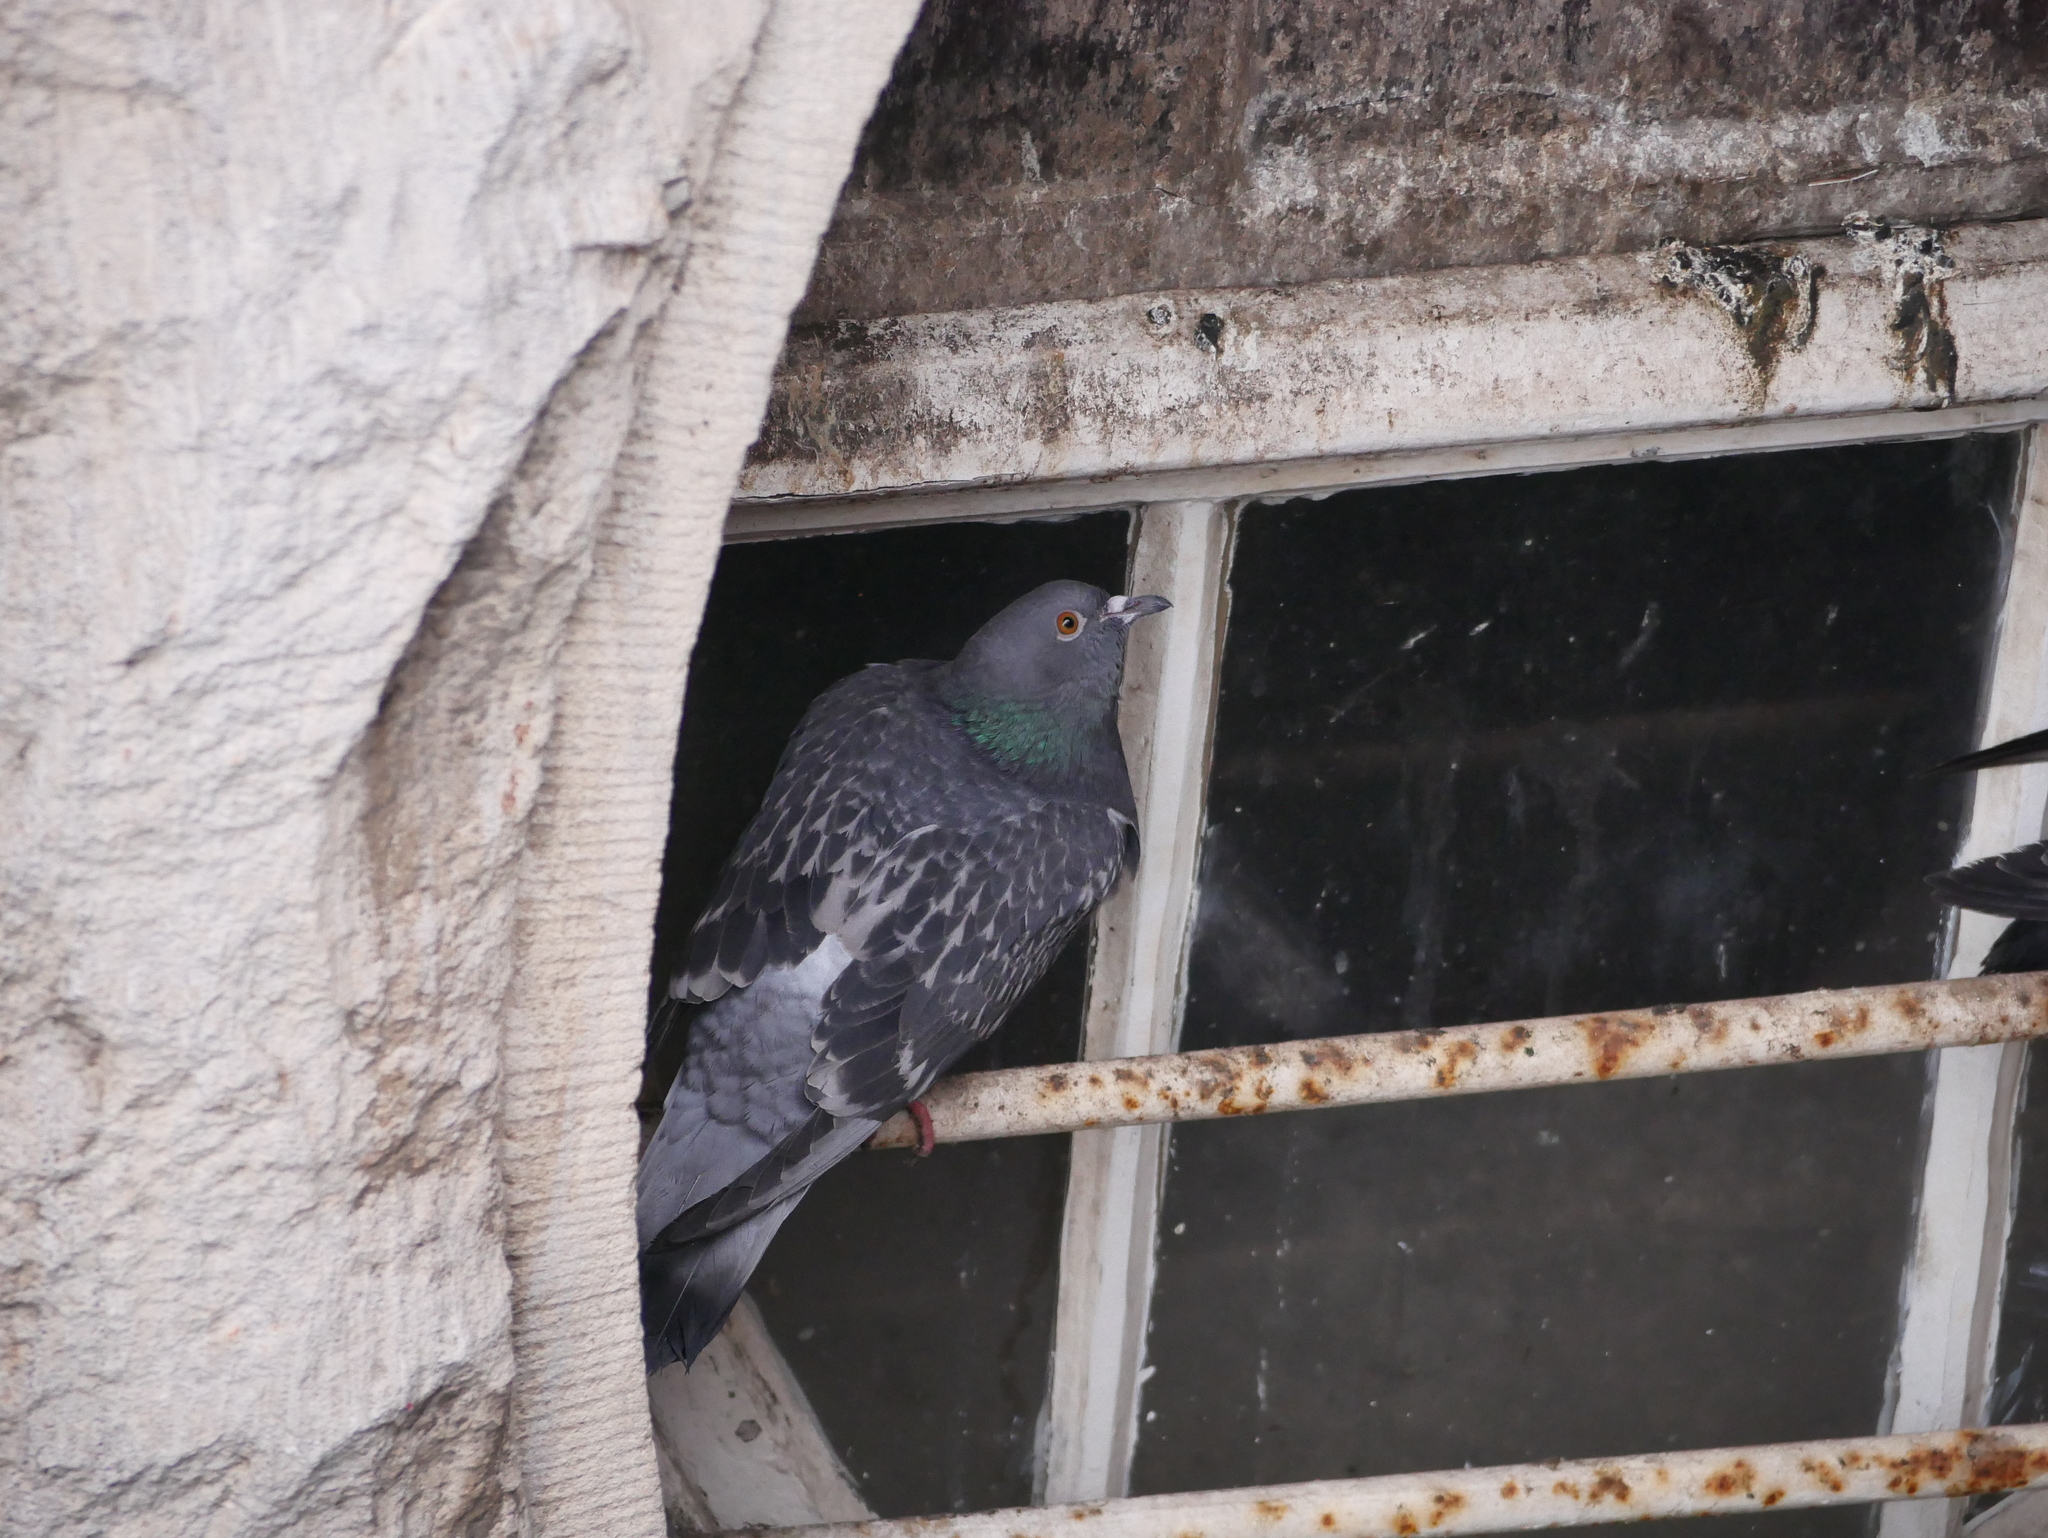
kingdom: Animalia
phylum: Chordata
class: Aves
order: Columbiformes
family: Columbidae
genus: Columba
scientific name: Columba livia
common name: Rock pigeon
